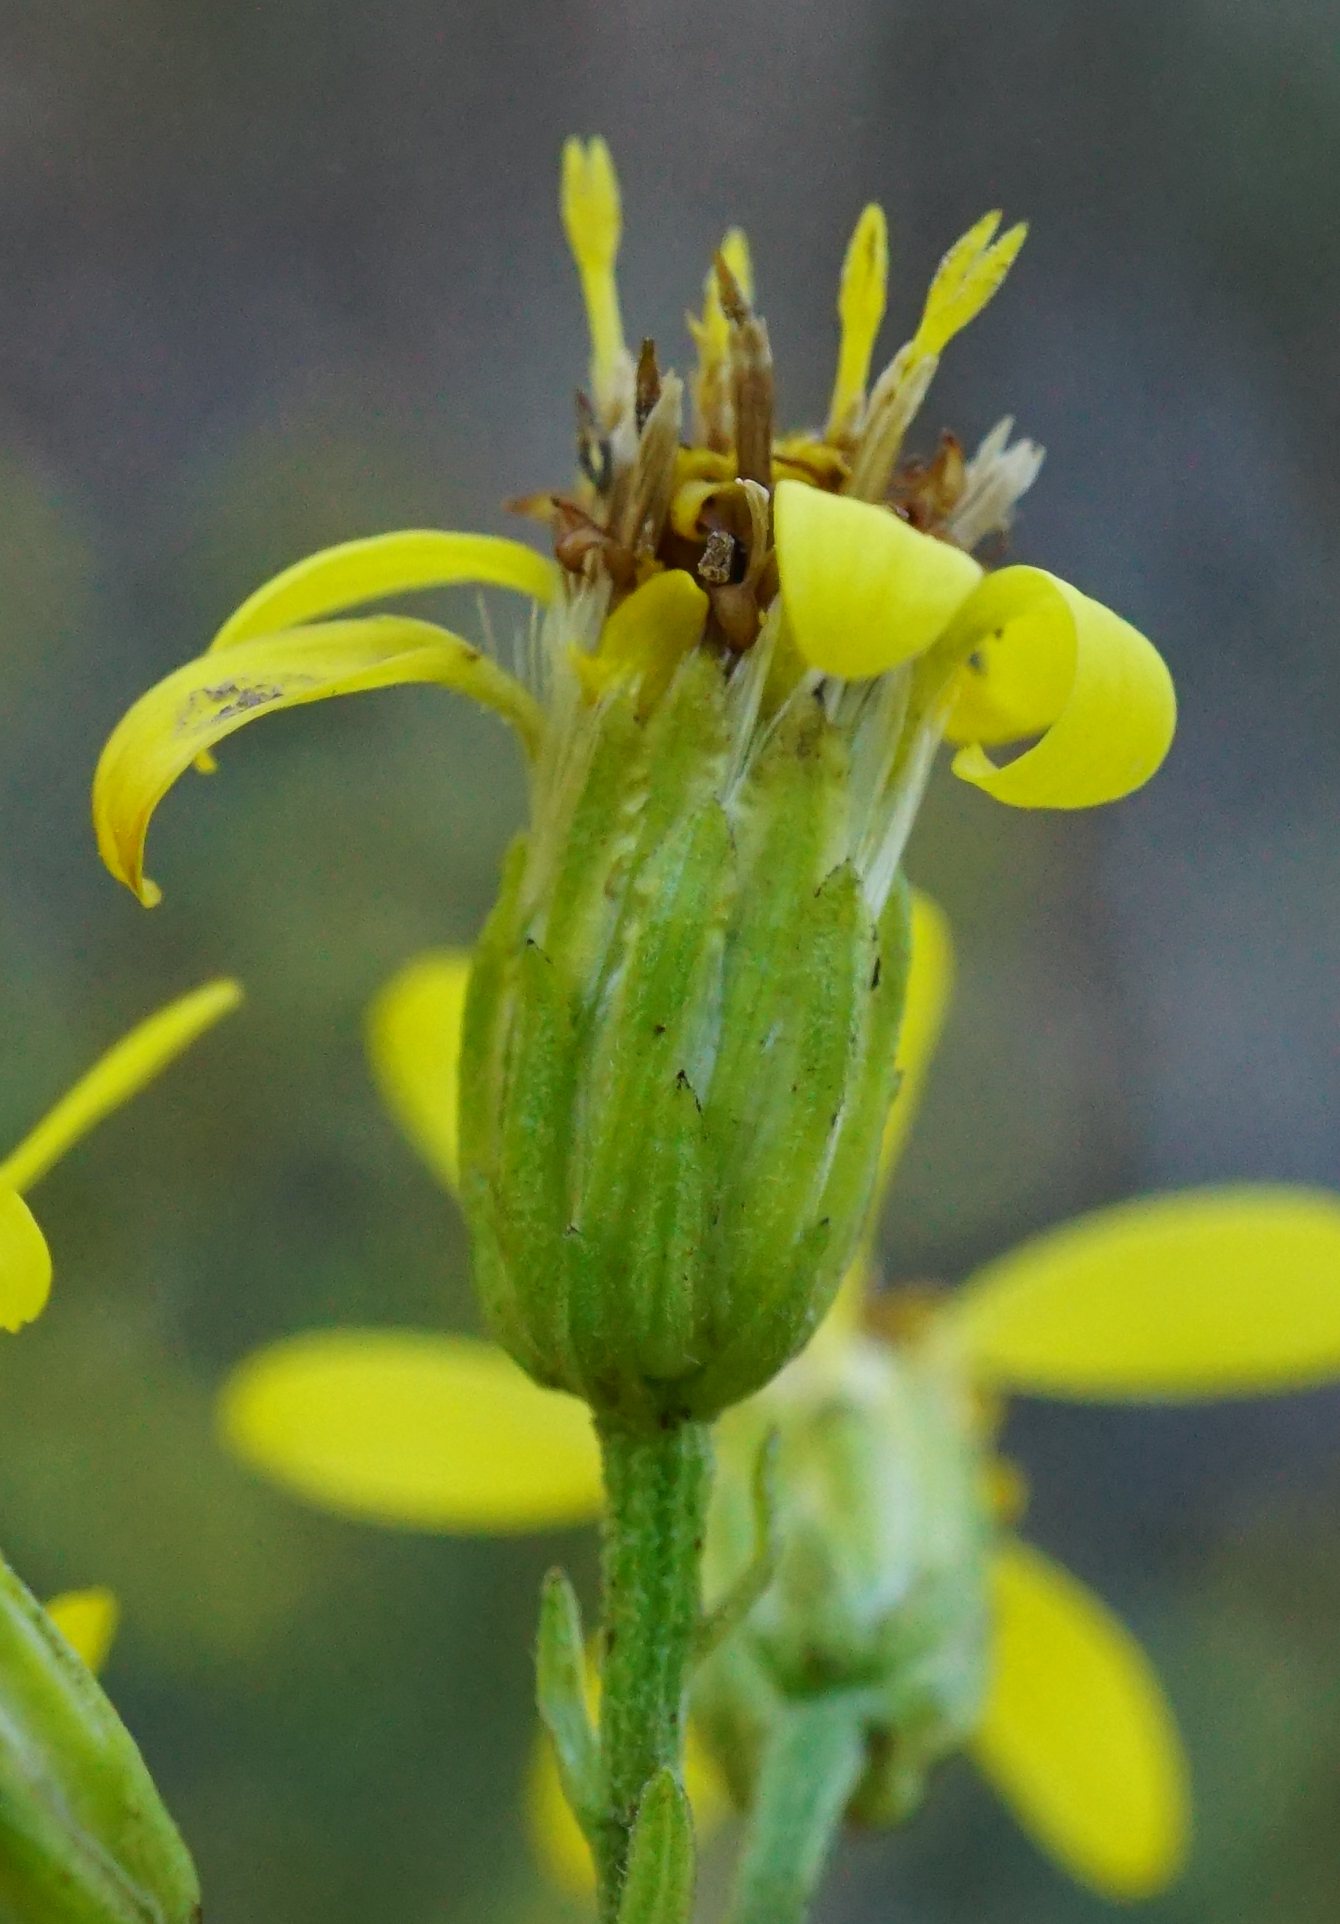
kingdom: Plantae
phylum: Tracheophyta
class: Magnoliopsida
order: Asterales
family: Asteraceae
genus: Solidago
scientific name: Solidago virgaurea
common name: Goldenrod
